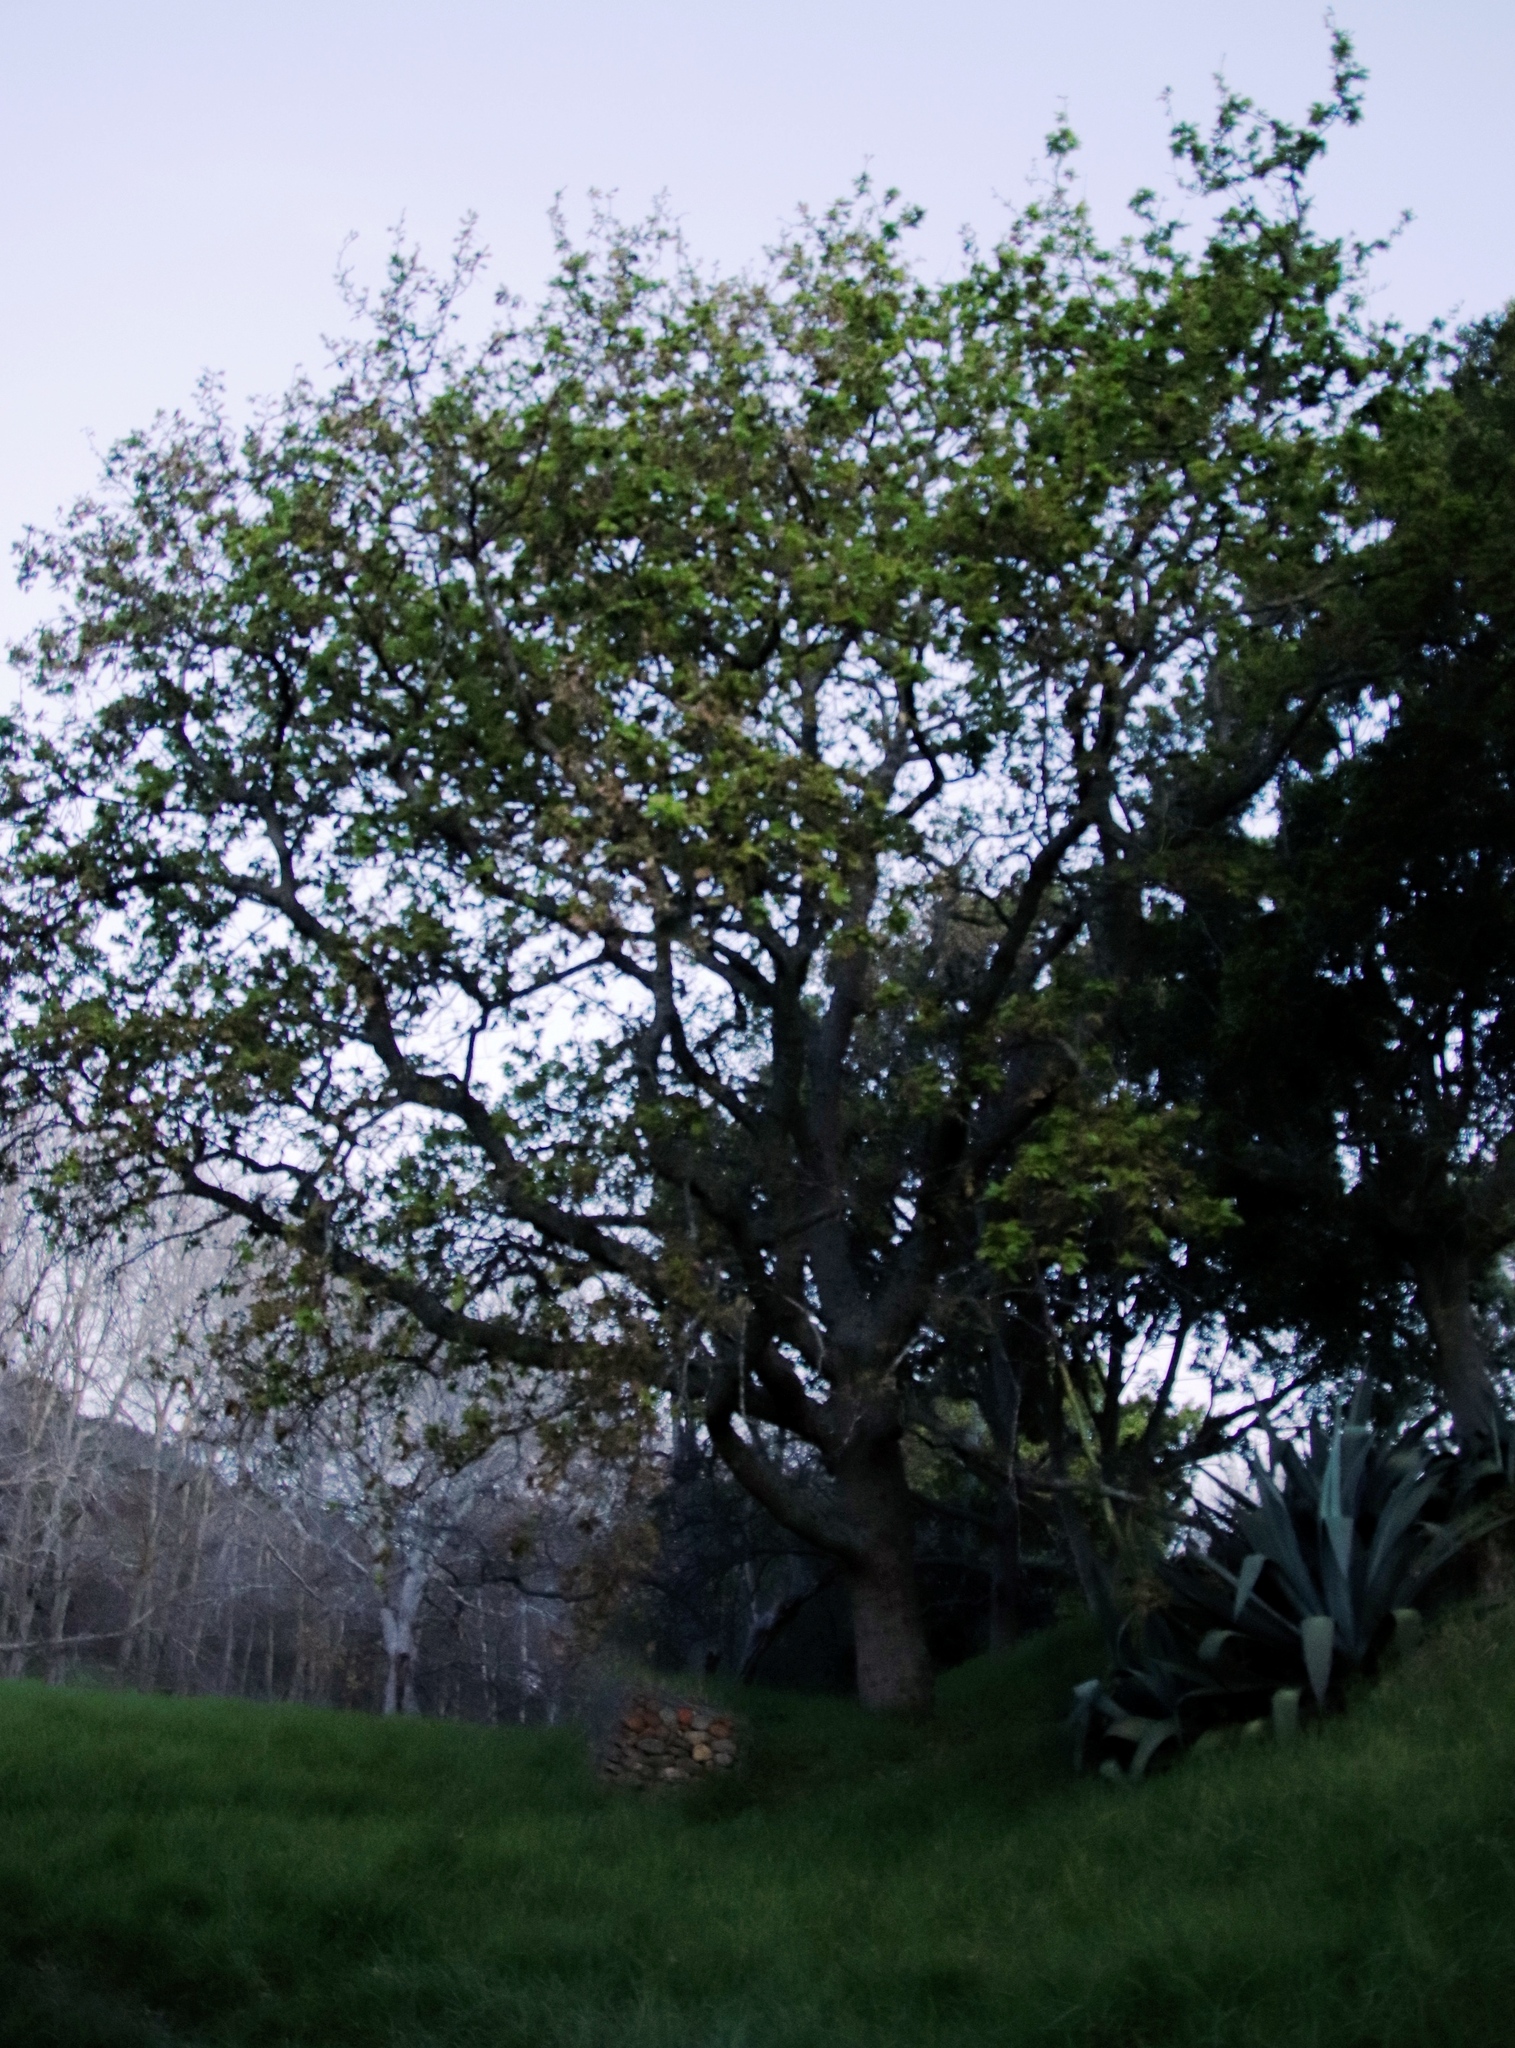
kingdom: Plantae
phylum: Tracheophyta
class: Magnoliopsida
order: Fagales
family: Fagaceae
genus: Quercus
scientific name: Quercus robur
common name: Pedunculate oak
